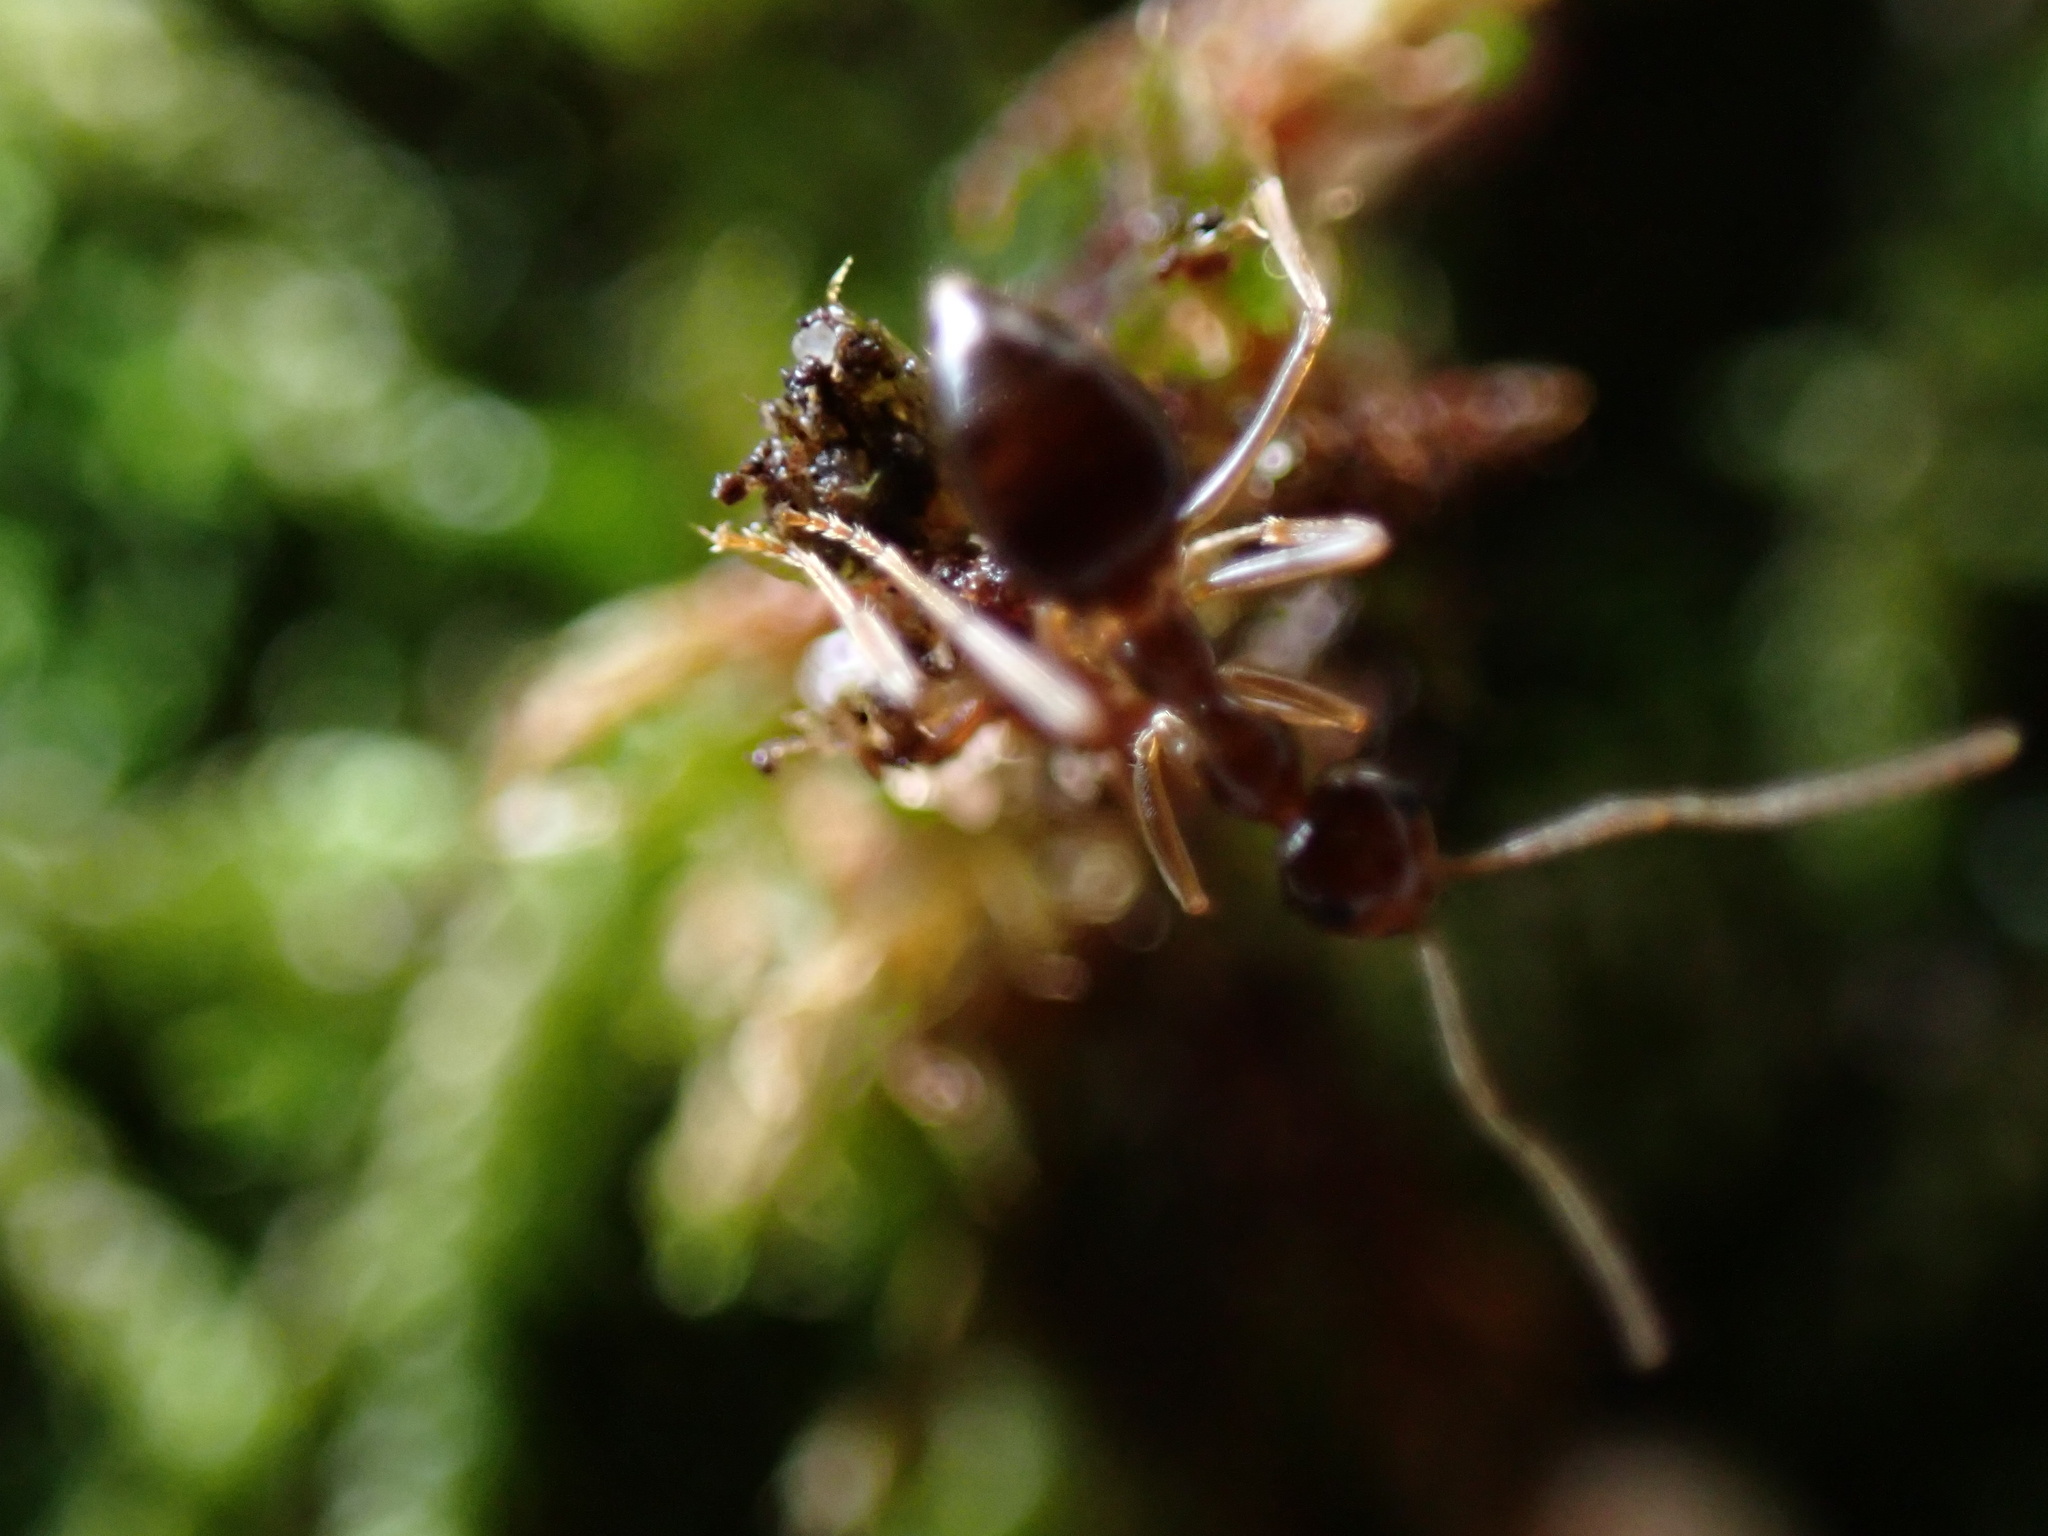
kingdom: Animalia
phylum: Arthropoda
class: Insecta
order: Hymenoptera
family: Formicidae
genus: Prenolepis
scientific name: Prenolepis imparis
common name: Small honey ant
